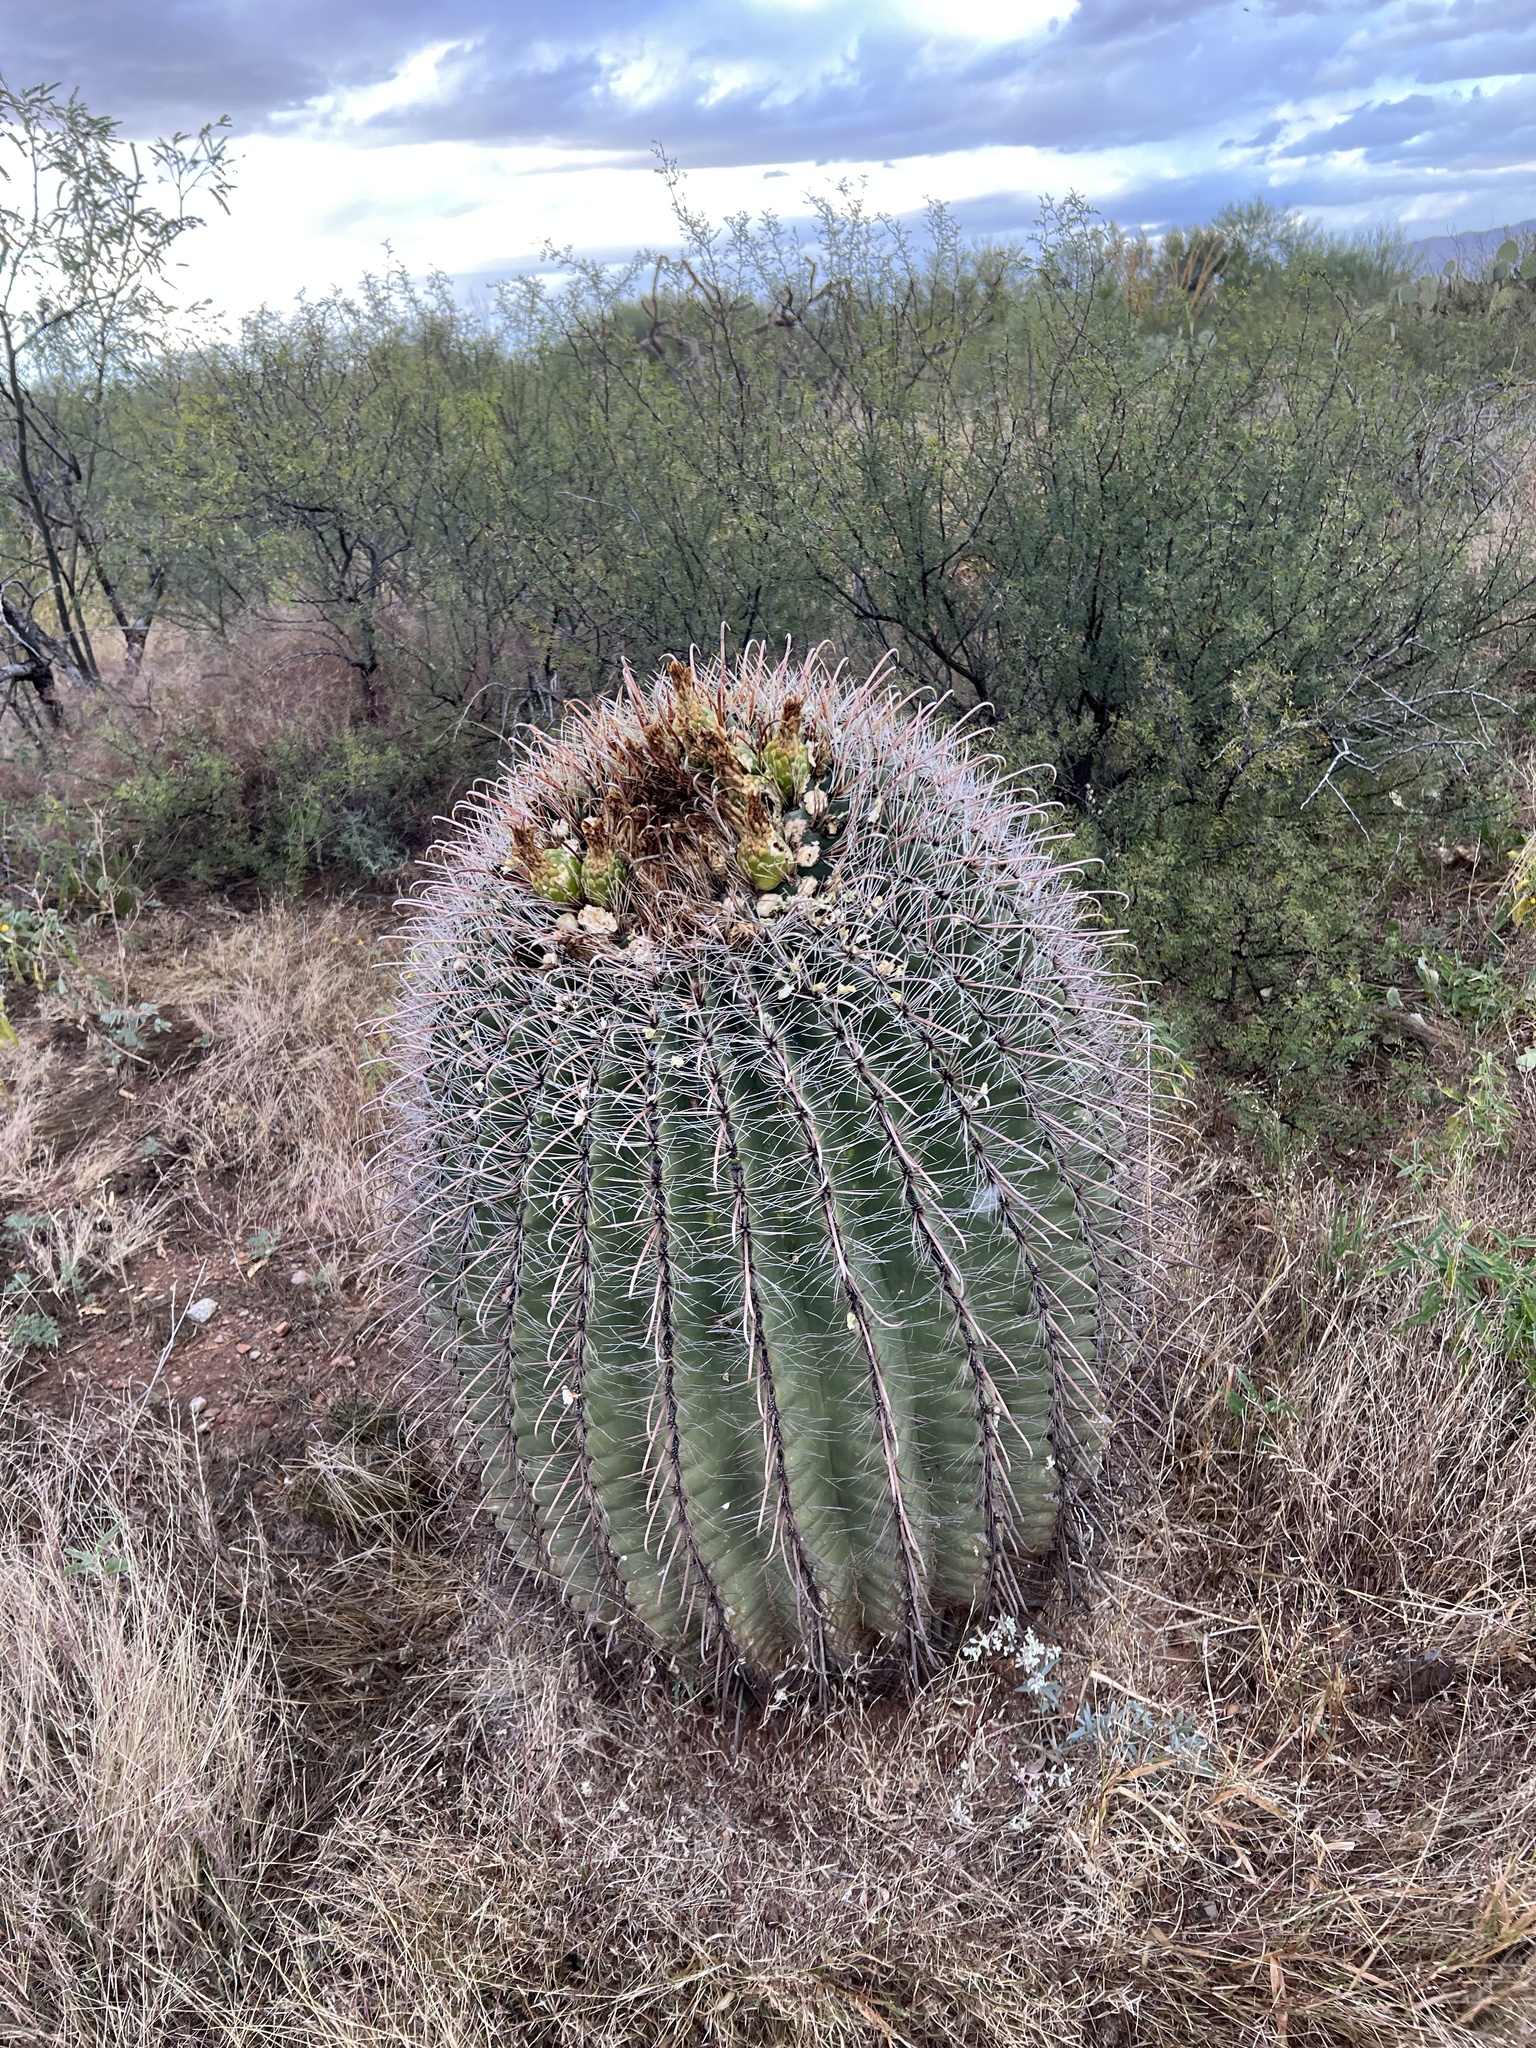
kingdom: Plantae
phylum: Tracheophyta
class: Magnoliopsida
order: Caryophyllales
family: Cactaceae
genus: Ferocactus
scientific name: Ferocactus wislizeni
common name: Candy barrel cactus
